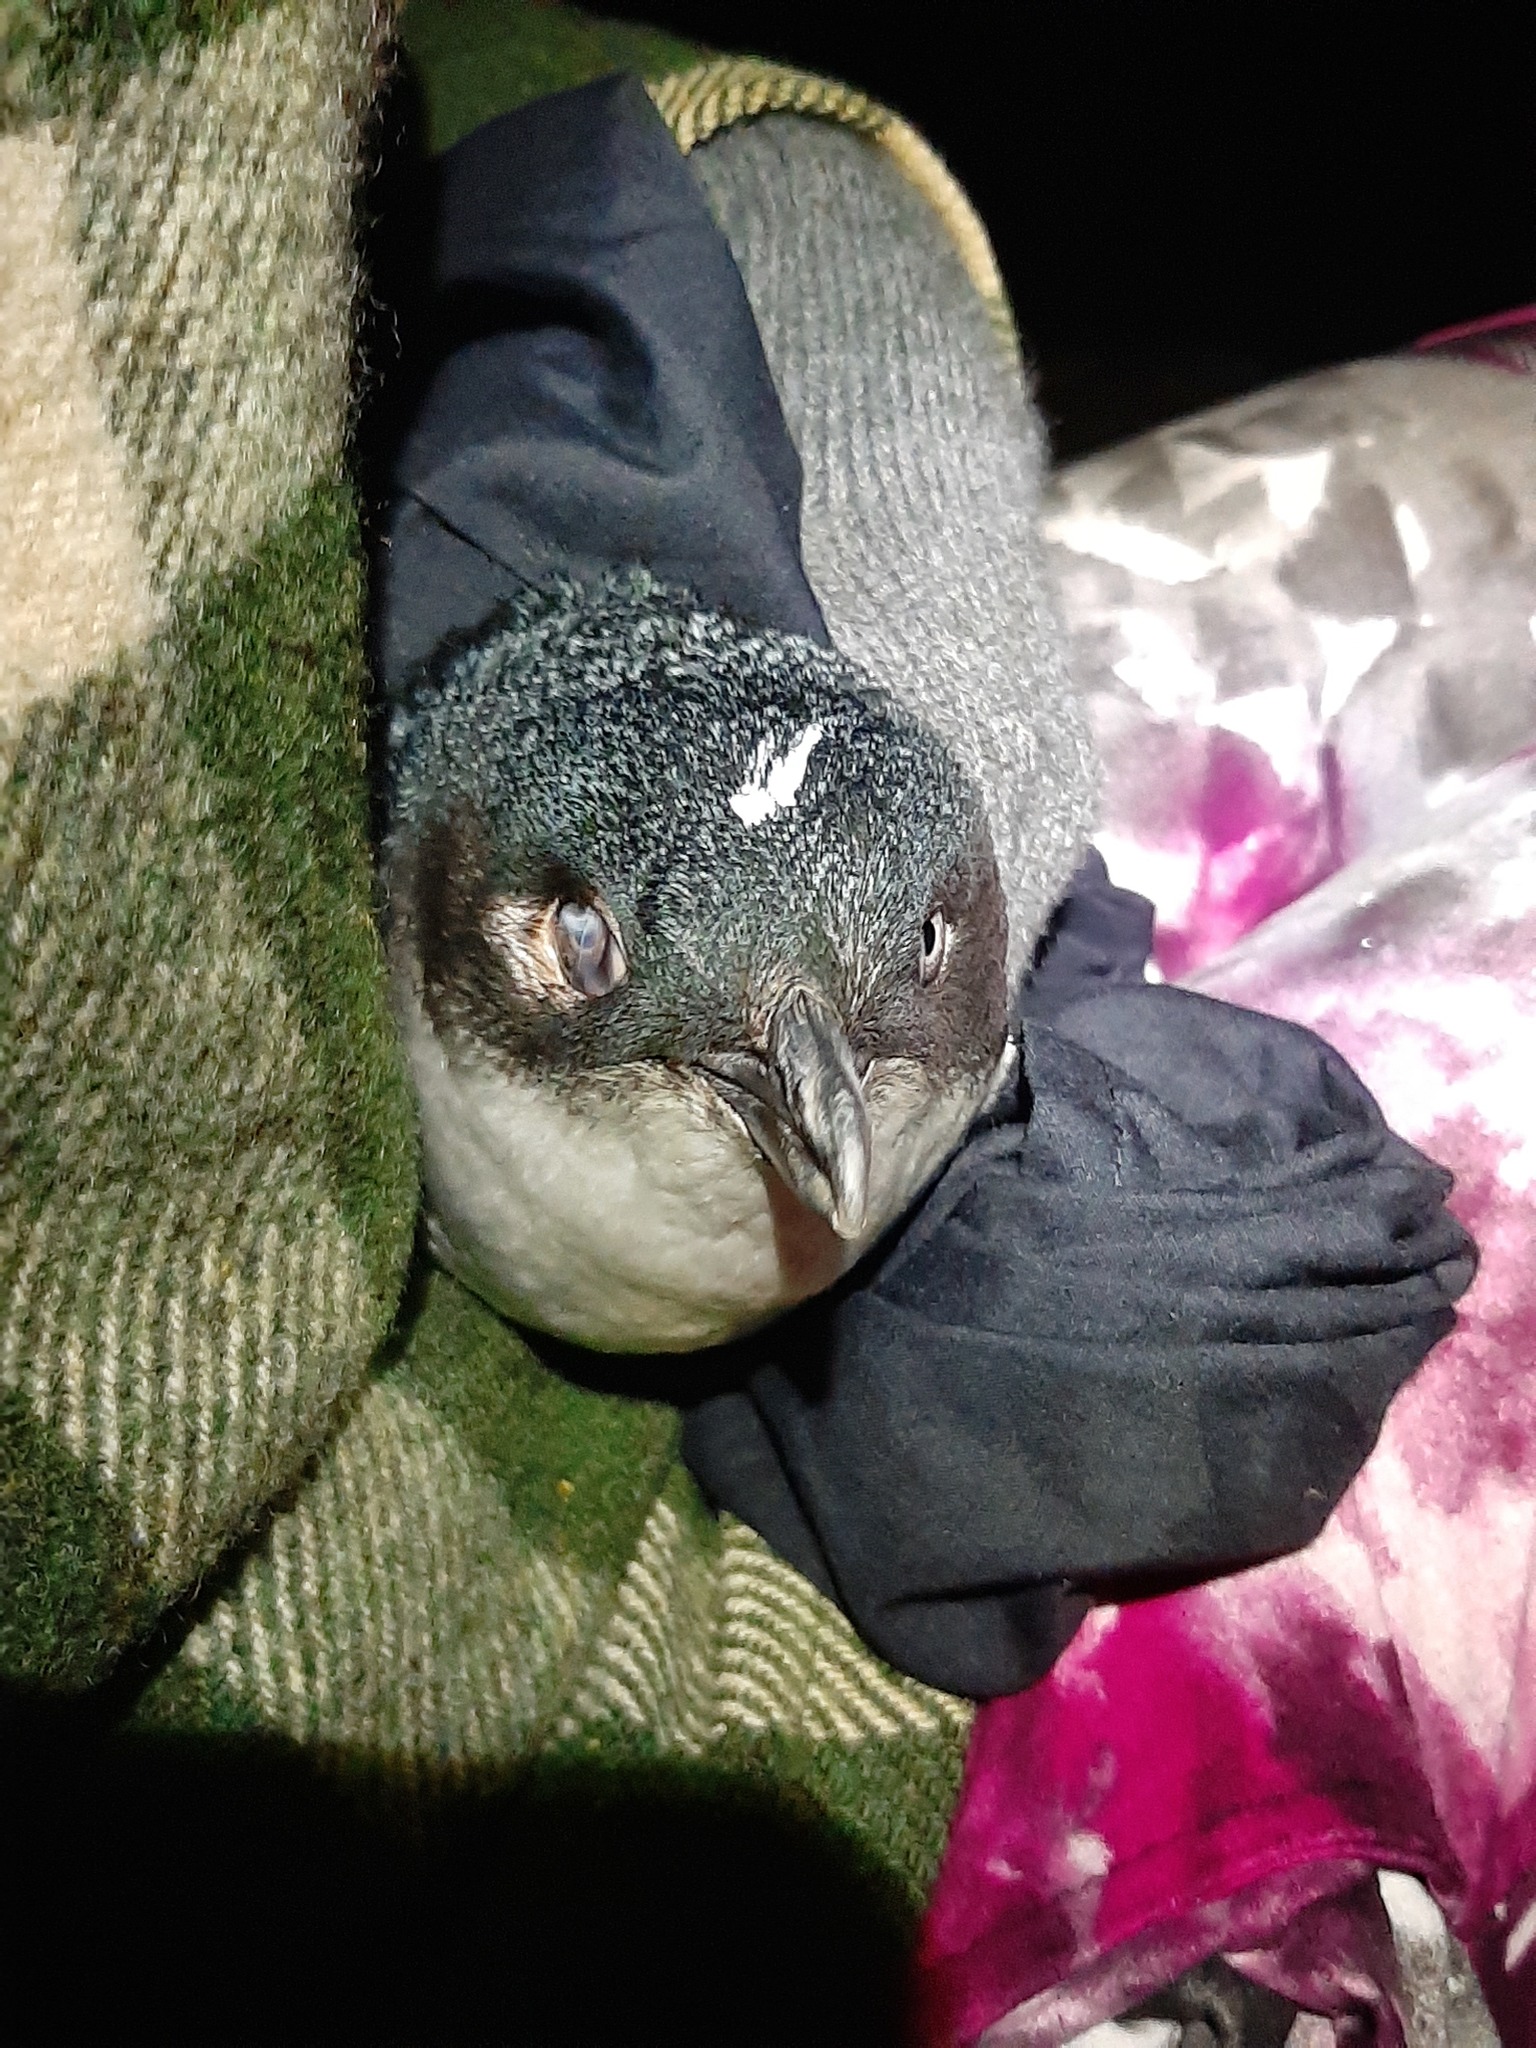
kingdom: Animalia
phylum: Chordata
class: Aves
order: Sphenisciformes
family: Spheniscidae
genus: Eudyptula
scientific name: Eudyptula minor
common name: Little penguin
